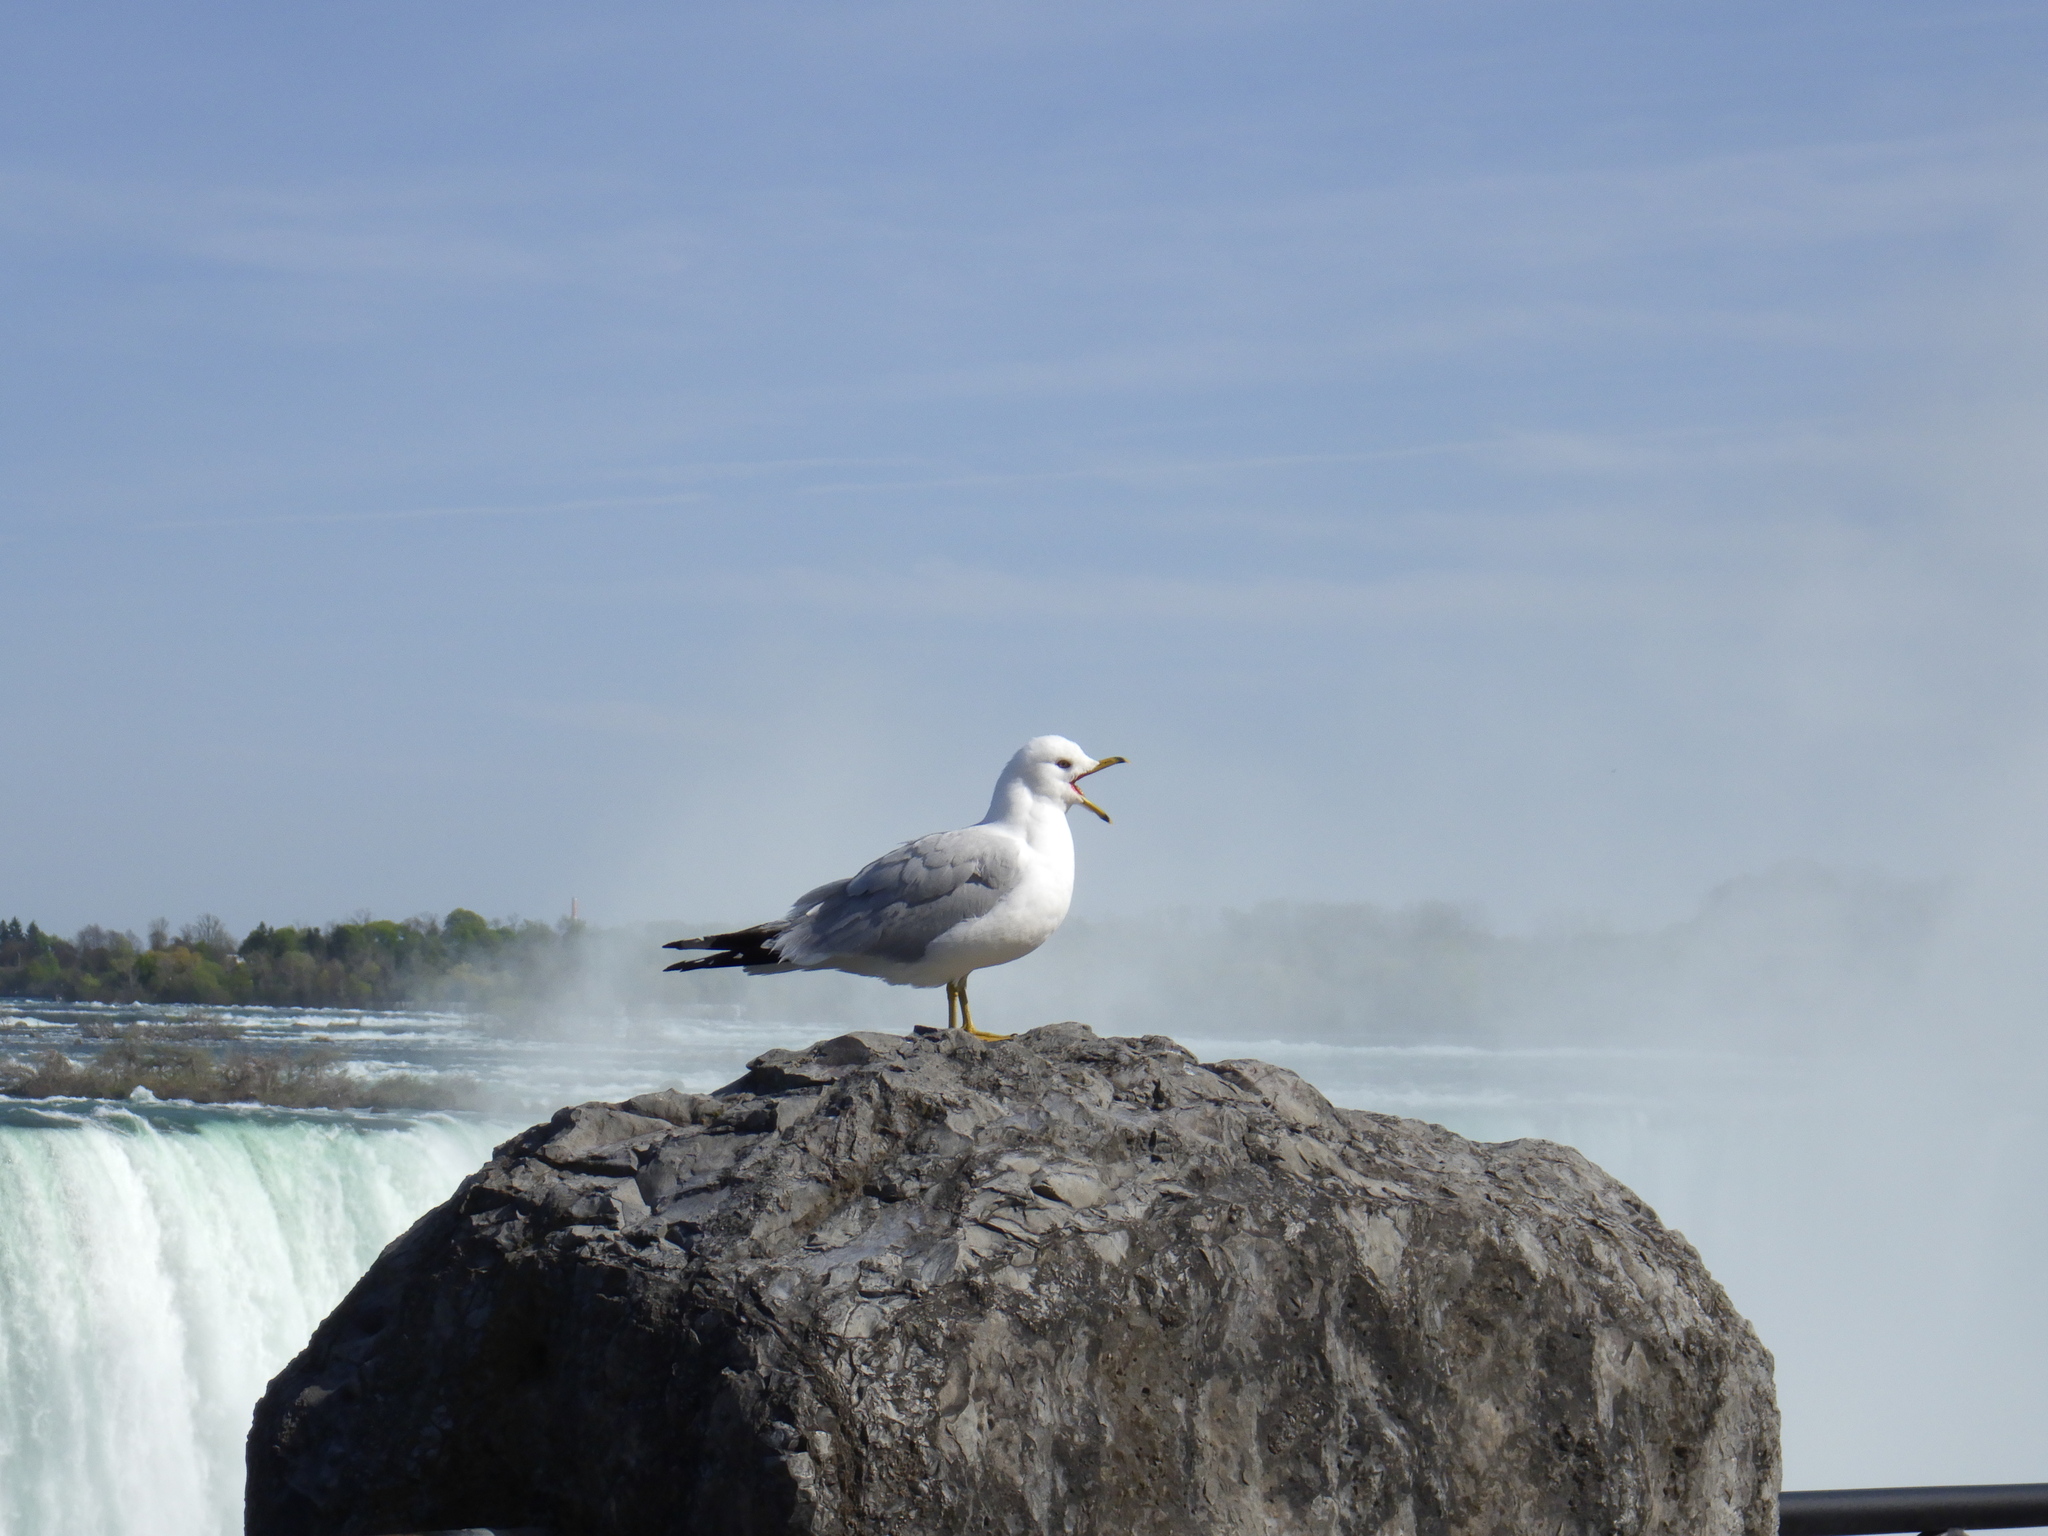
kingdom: Animalia
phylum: Chordata
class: Aves
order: Charadriiformes
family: Laridae
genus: Larus
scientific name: Larus delawarensis
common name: Ring-billed gull
